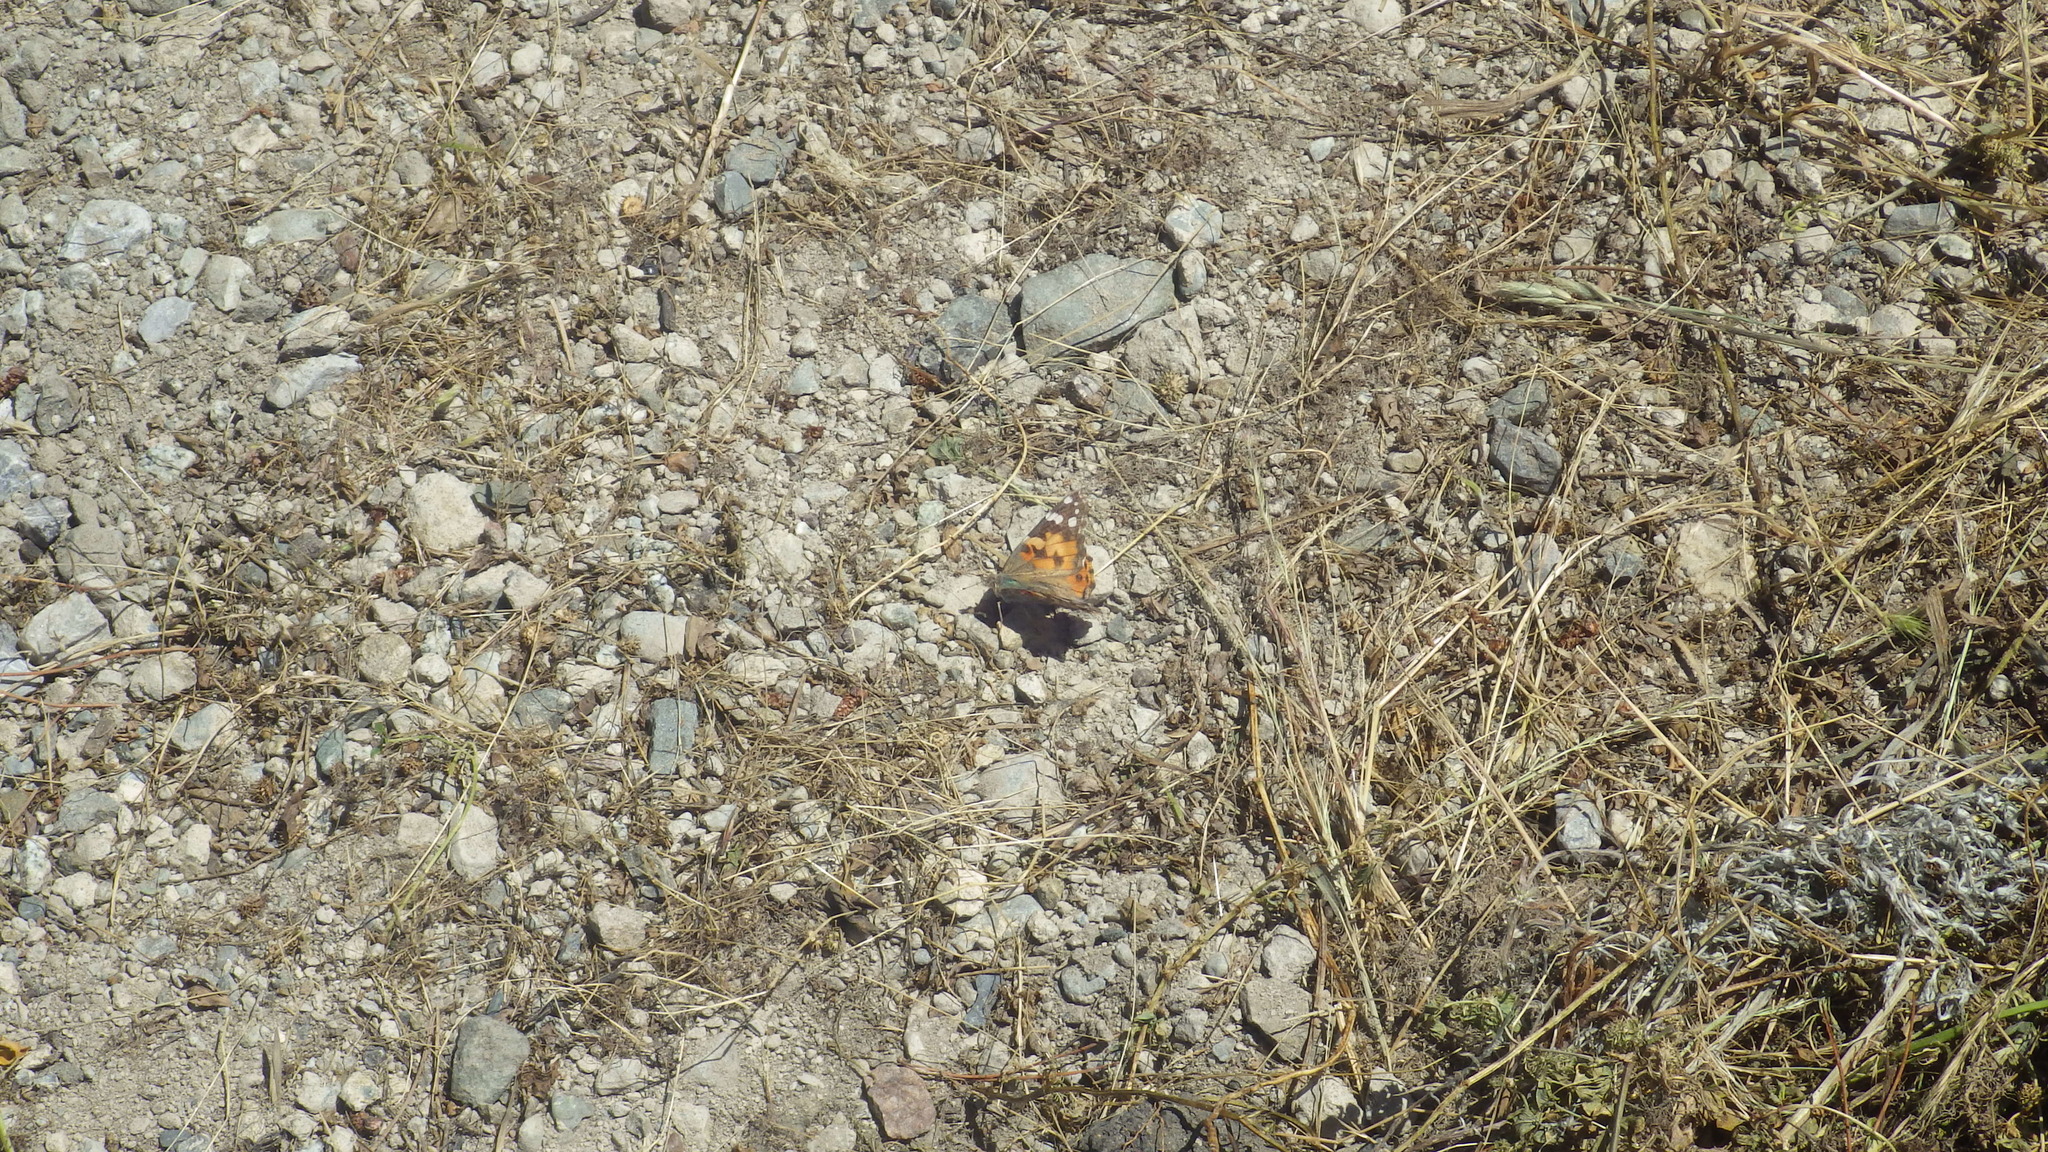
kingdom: Animalia
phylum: Arthropoda
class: Insecta
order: Lepidoptera
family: Nymphalidae
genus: Vanessa
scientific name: Vanessa cardui
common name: Painted lady
